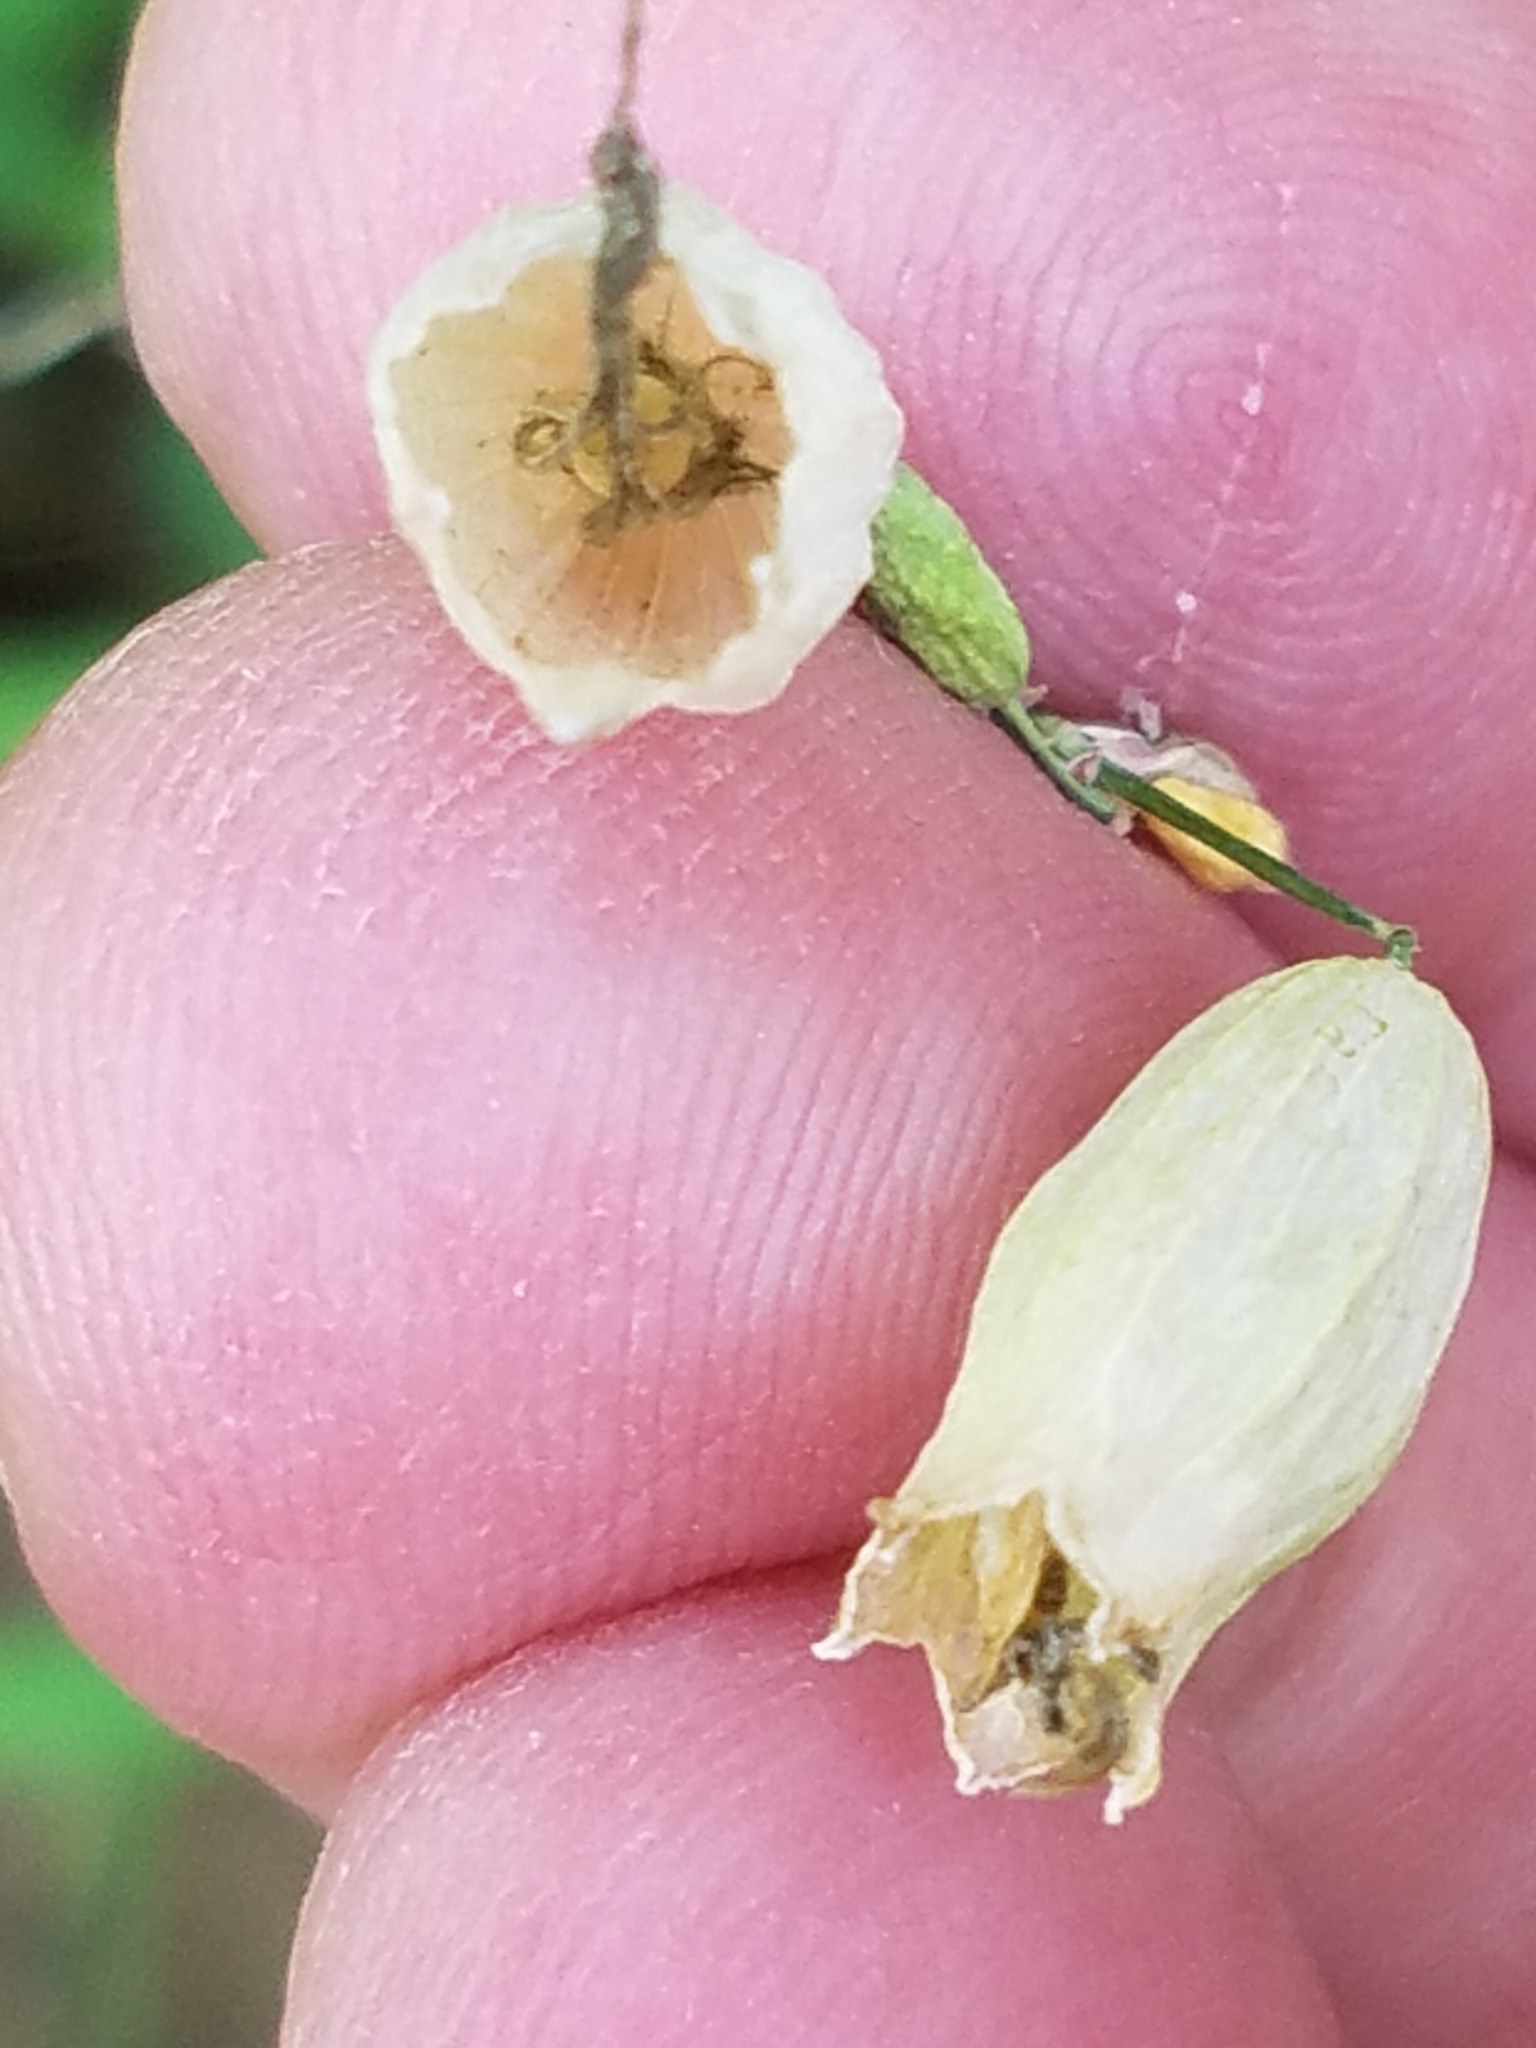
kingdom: Plantae
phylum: Tracheophyta
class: Magnoliopsida
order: Caryophyllales
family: Caryophyllaceae
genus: Silene
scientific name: Silene vulgaris
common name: Bladder campion
